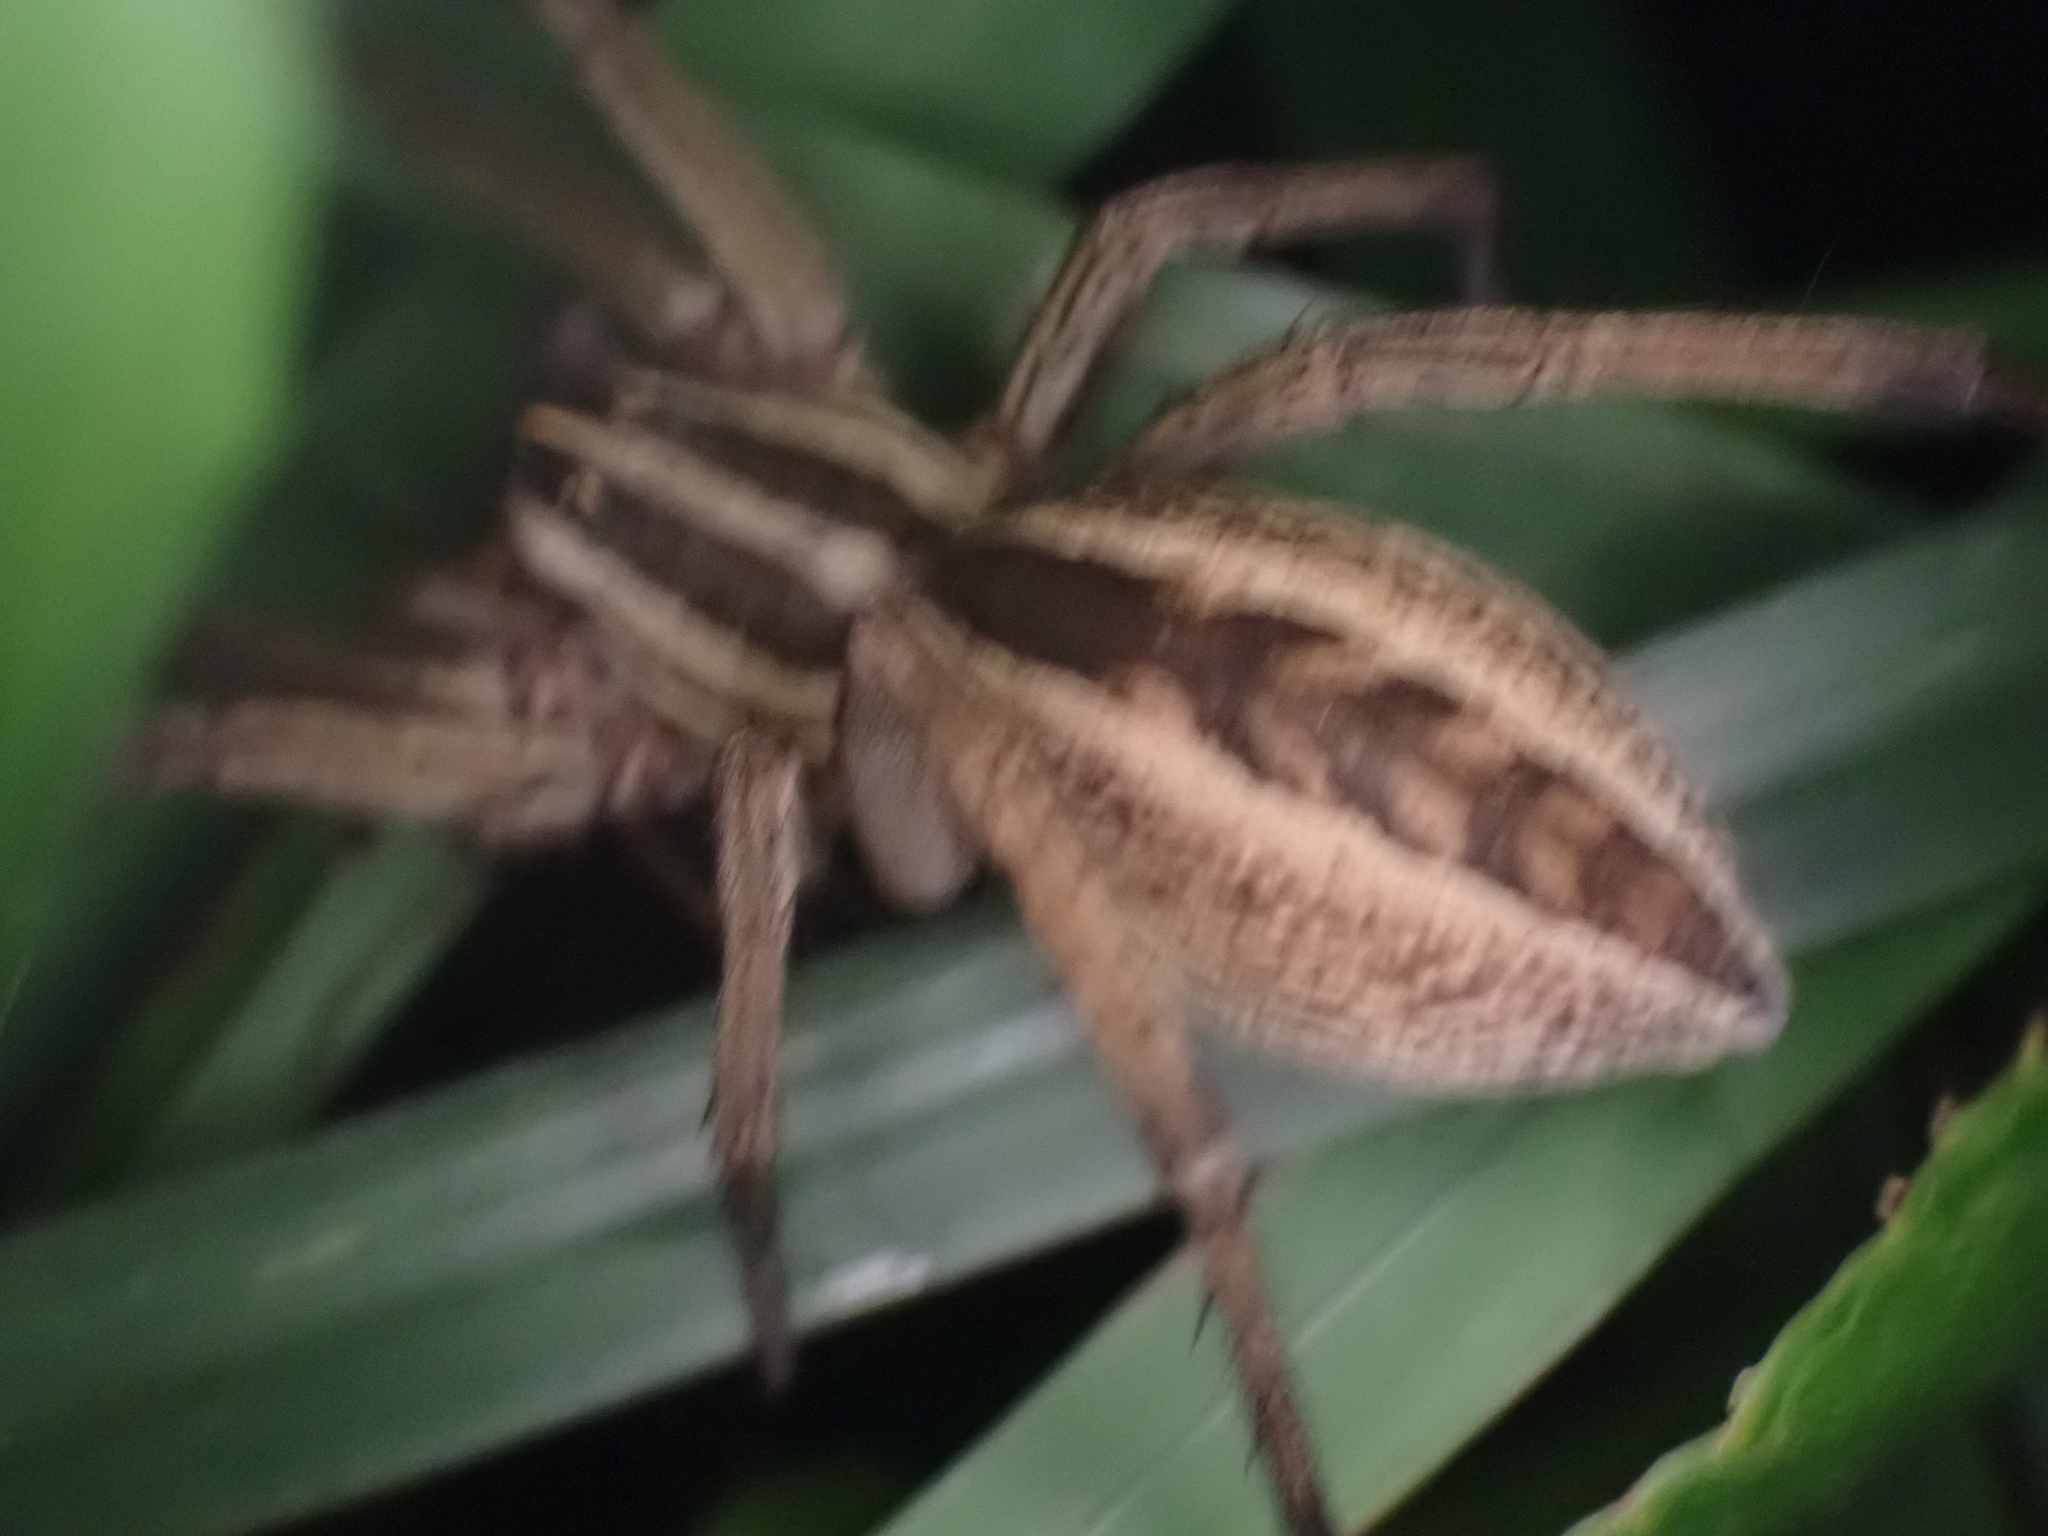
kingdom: Animalia
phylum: Arthropoda
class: Arachnida
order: Araneae
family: Lycosidae
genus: Rabidosa
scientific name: Rabidosa rabida
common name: Rabid wolf spider
